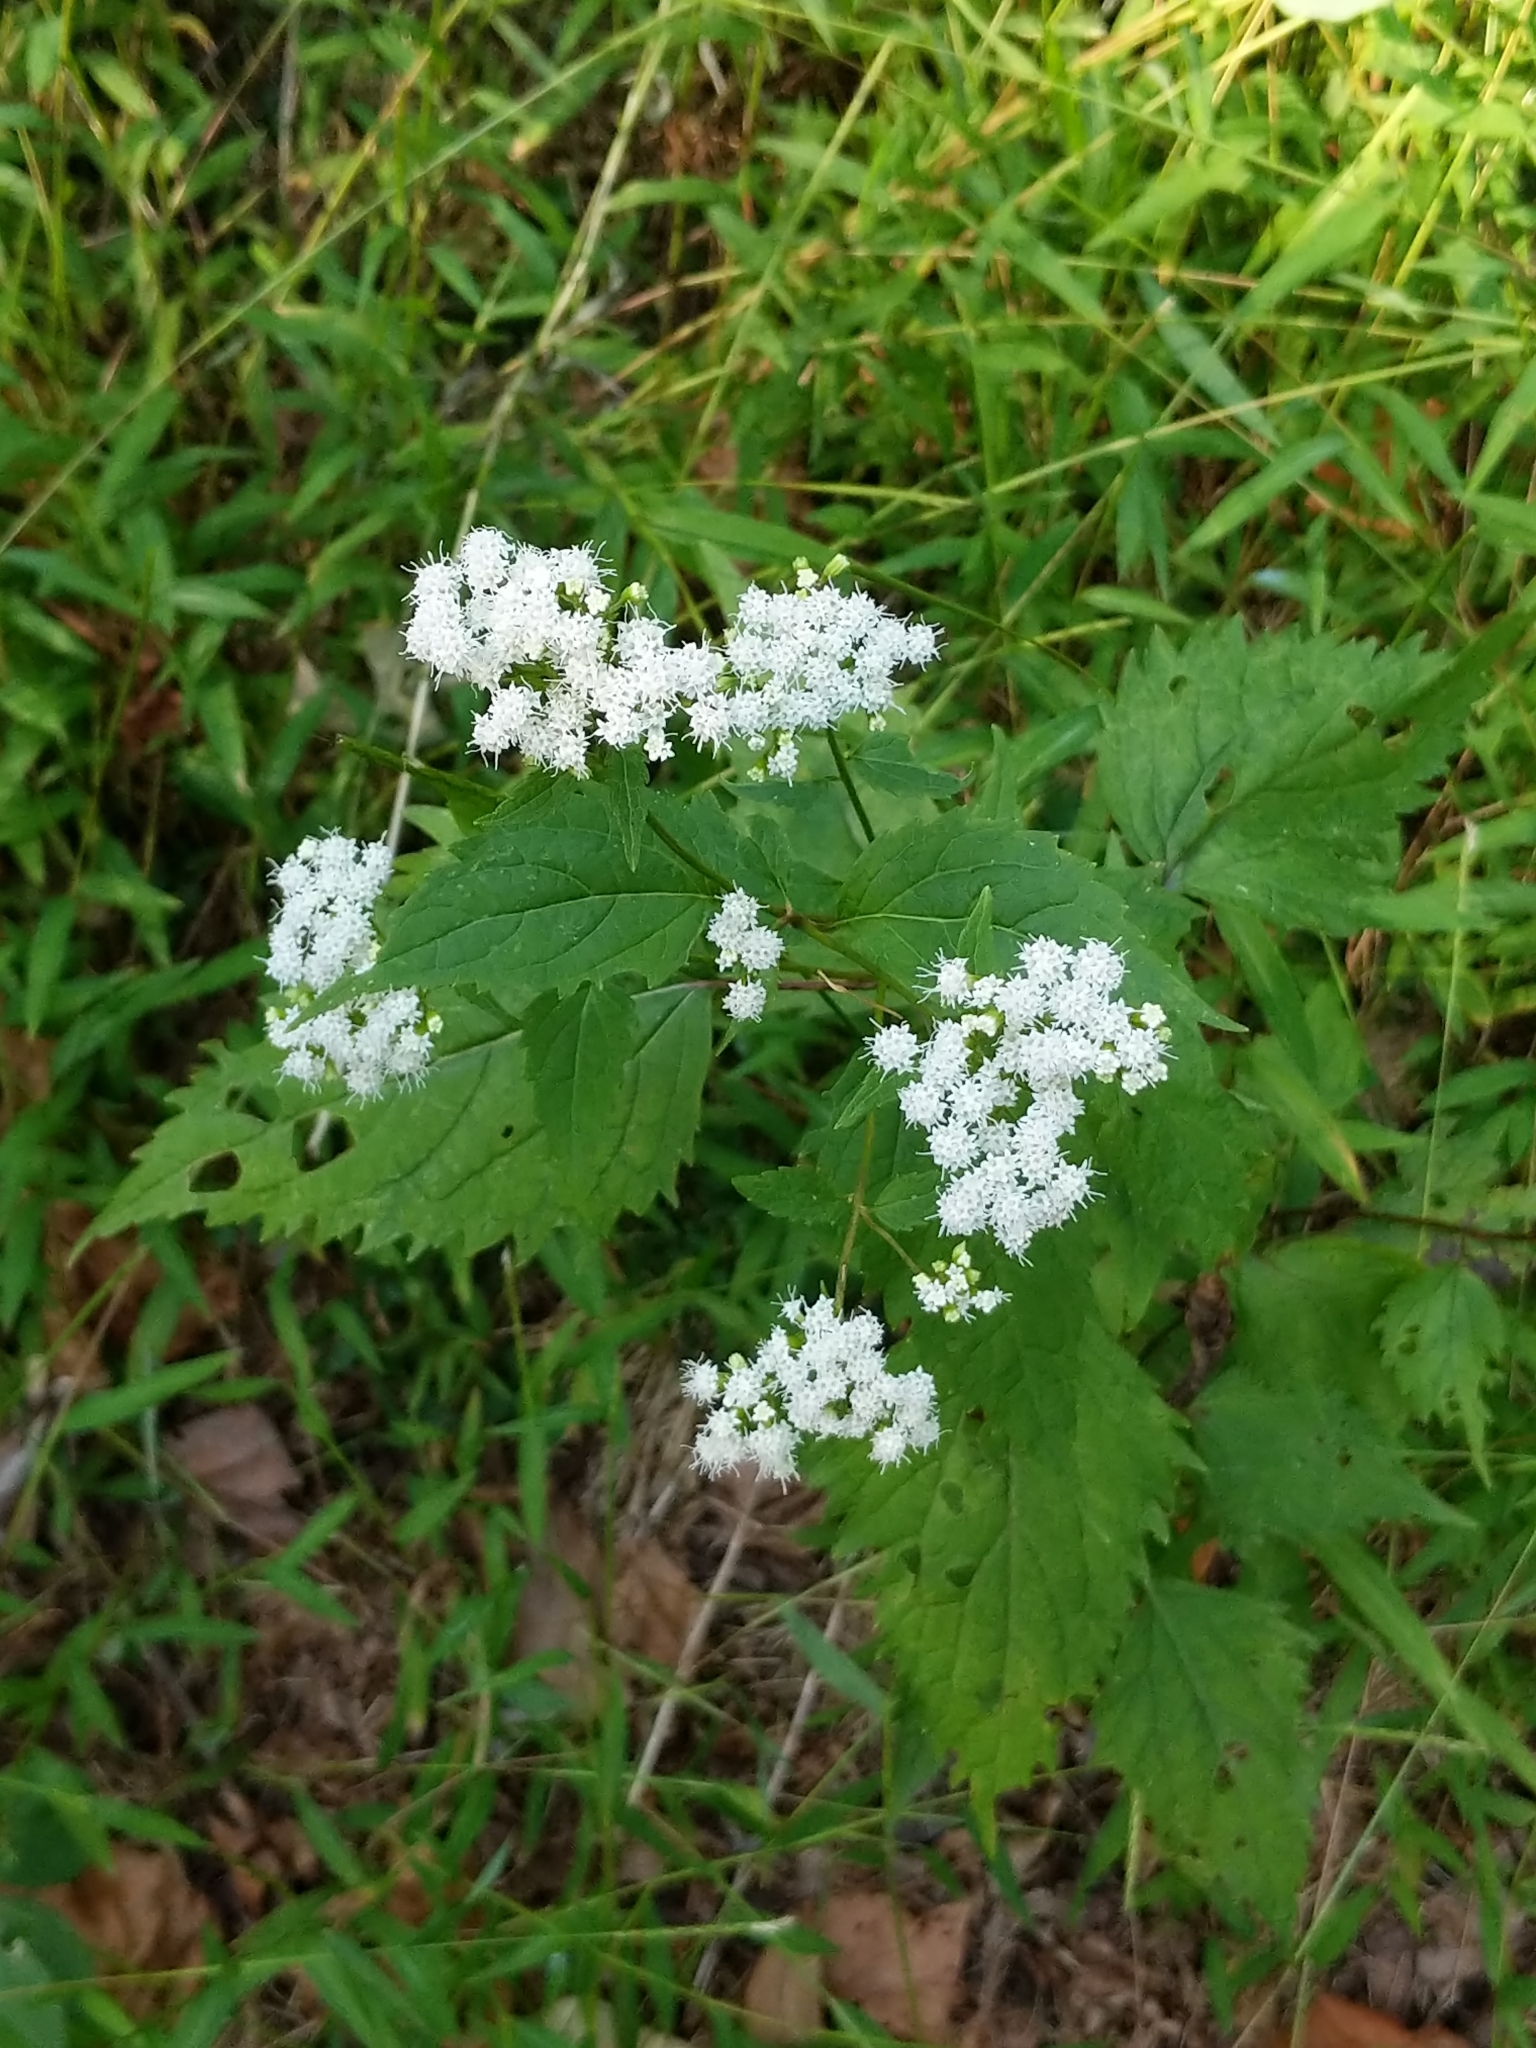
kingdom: Plantae
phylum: Tracheophyta
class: Magnoliopsida
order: Asterales
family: Asteraceae
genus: Ageratina
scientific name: Ageratina altissima
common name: White snakeroot
